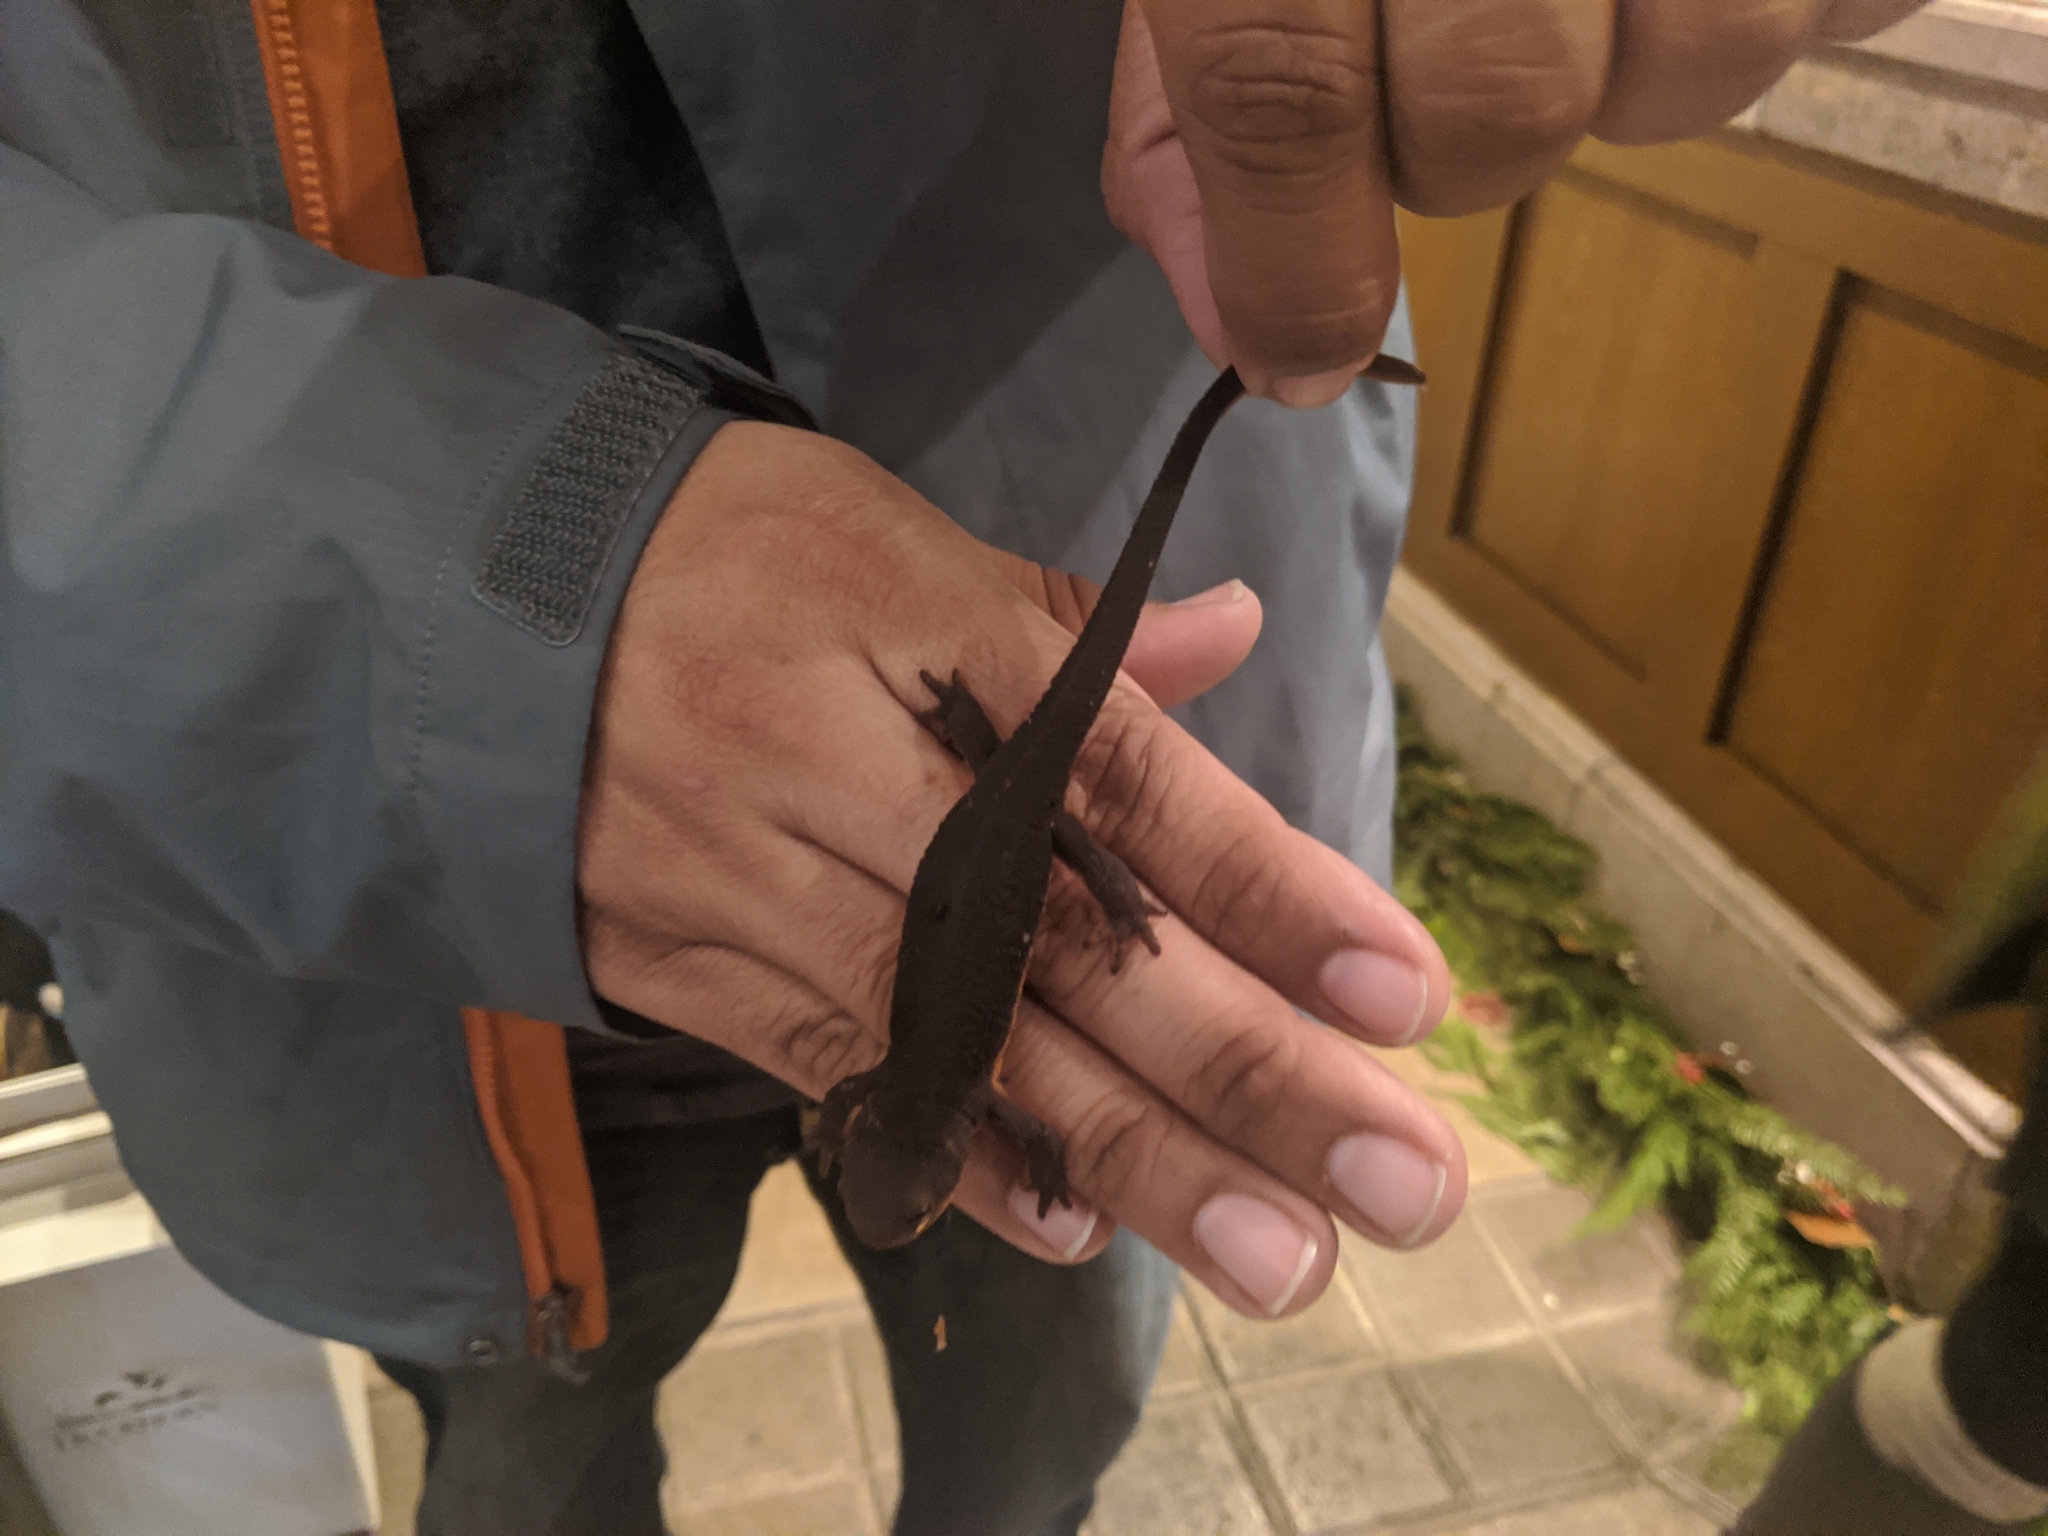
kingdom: Animalia
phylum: Chordata
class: Amphibia
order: Caudata
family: Salamandridae
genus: Taricha
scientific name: Taricha granulosa
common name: Roughskin newt
